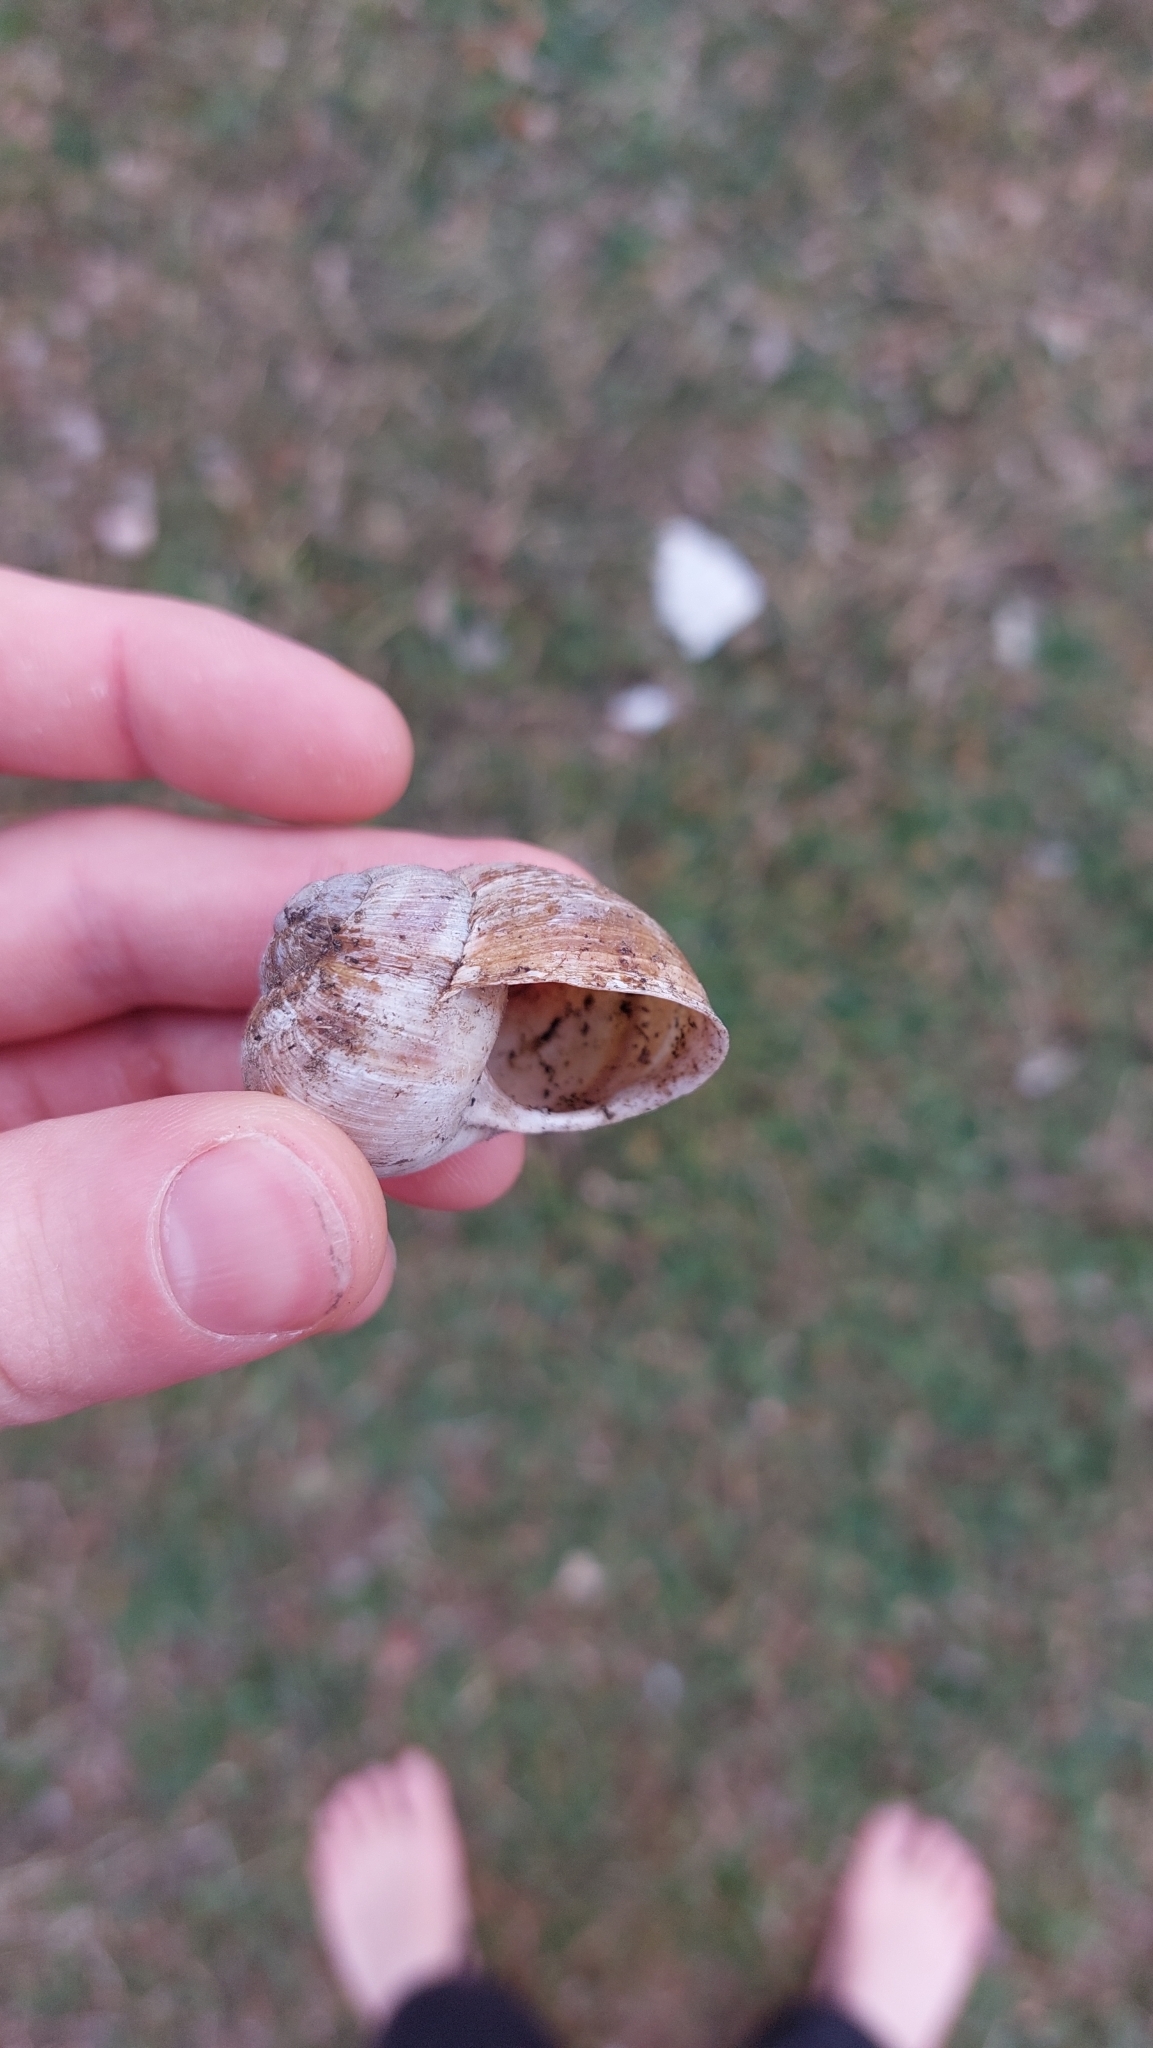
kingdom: Animalia
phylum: Mollusca
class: Gastropoda
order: Stylommatophora
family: Helicidae
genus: Helix
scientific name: Helix pomatia
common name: Roman snail
